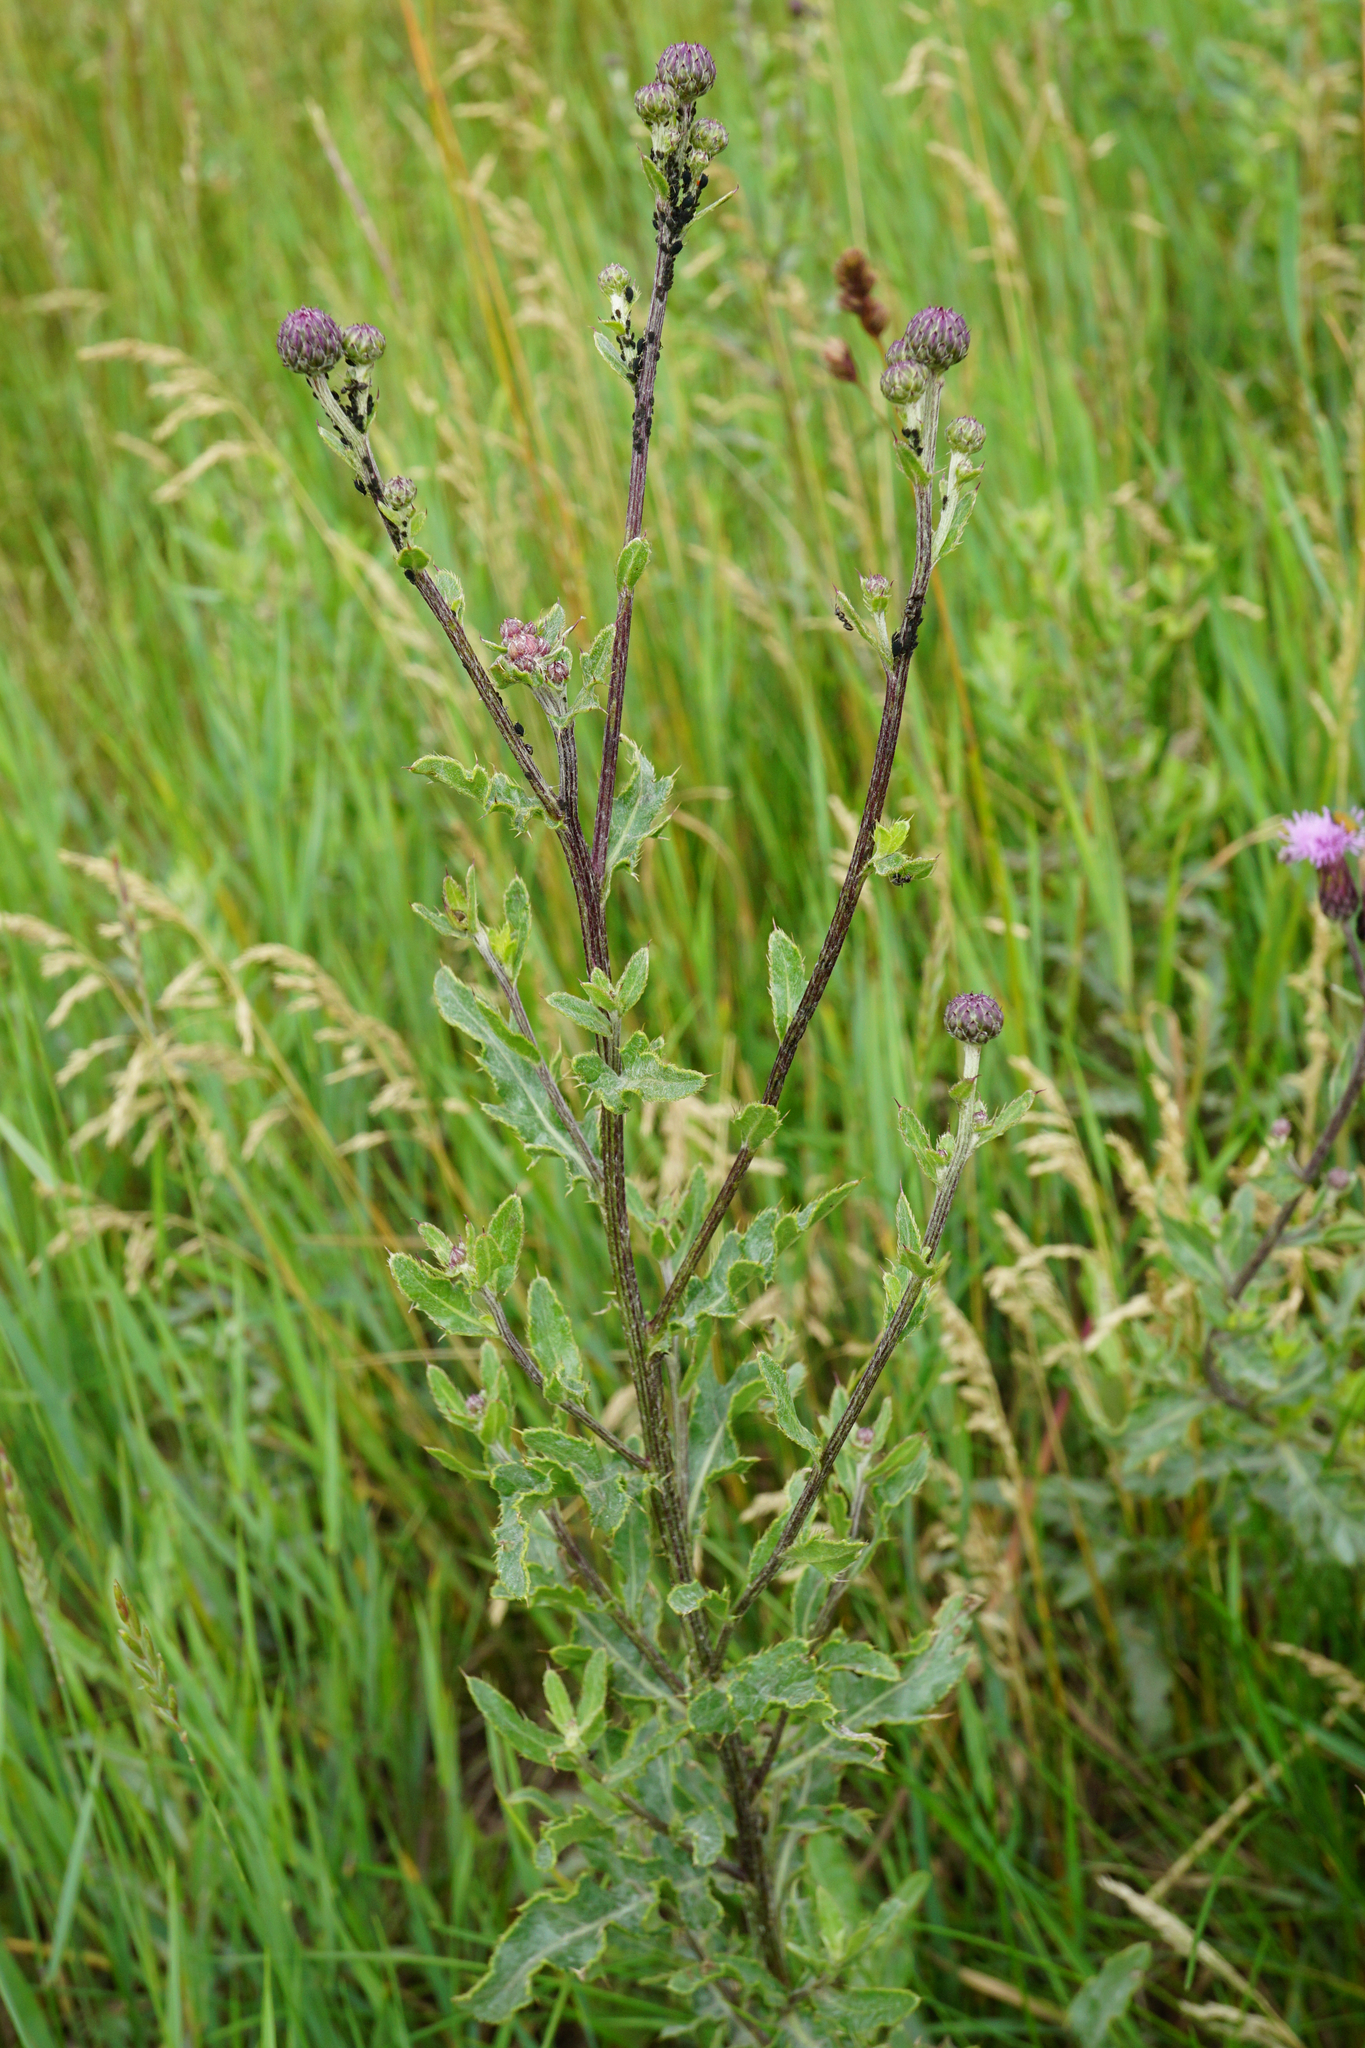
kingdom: Plantae
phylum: Tracheophyta
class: Magnoliopsida
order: Asterales
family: Asteraceae
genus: Cirsium
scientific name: Cirsium arvense
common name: Creeping thistle
